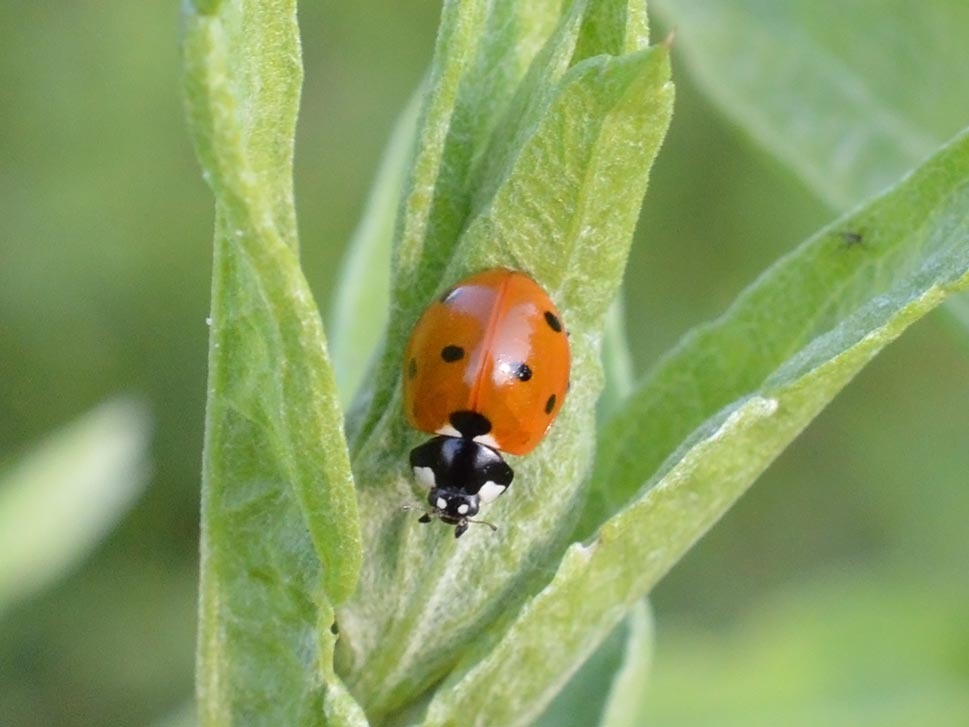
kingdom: Animalia
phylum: Arthropoda
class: Insecta
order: Coleoptera
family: Coccinellidae
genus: Coccinella
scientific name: Coccinella septempunctata
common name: Sevenspotted lady beetle
